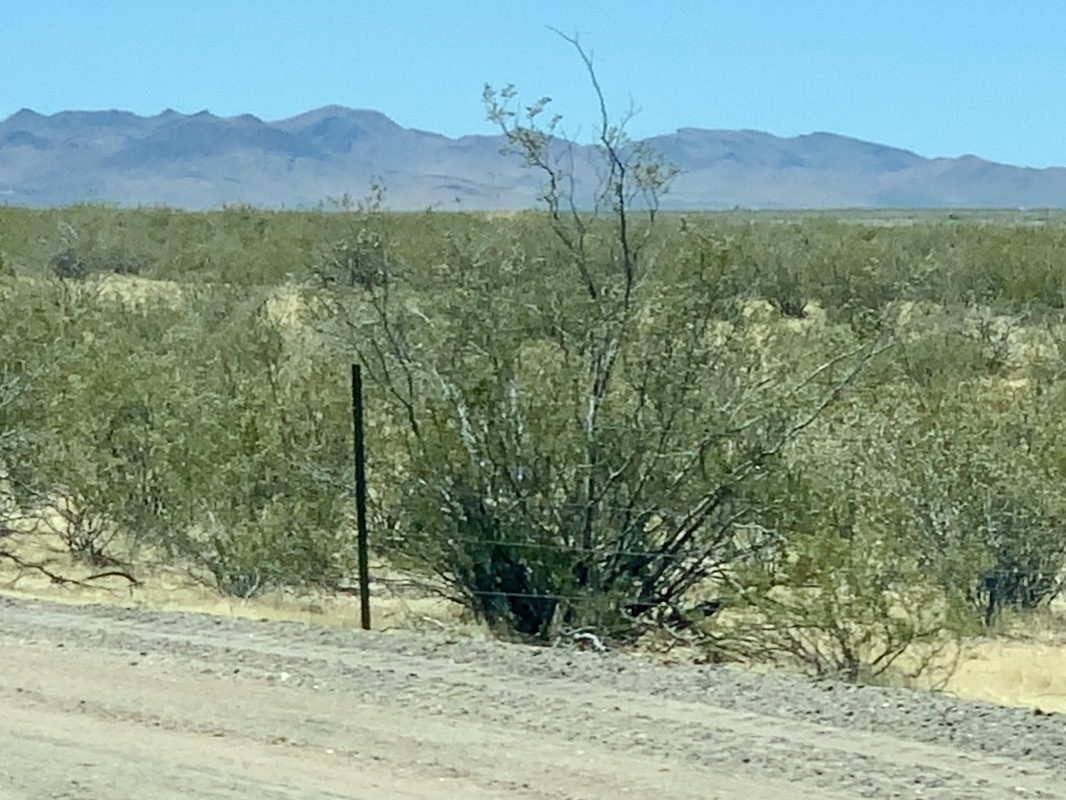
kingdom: Plantae
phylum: Tracheophyta
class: Magnoliopsida
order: Zygophyllales
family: Zygophyllaceae
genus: Larrea
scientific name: Larrea tridentata
